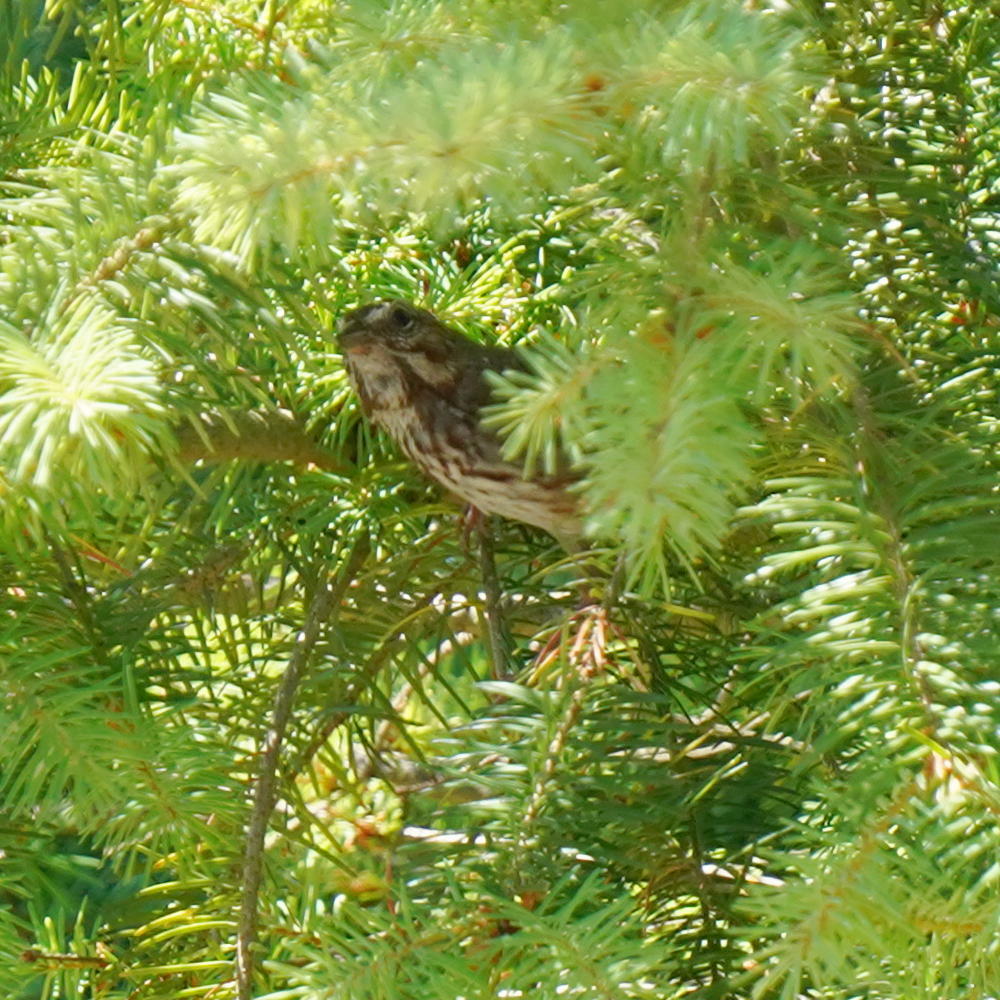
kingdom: Animalia
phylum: Chordata
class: Aves
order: Passeriformes
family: Passerellidae
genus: Melospiza
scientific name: Melospiza melodia
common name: Song sparrow
